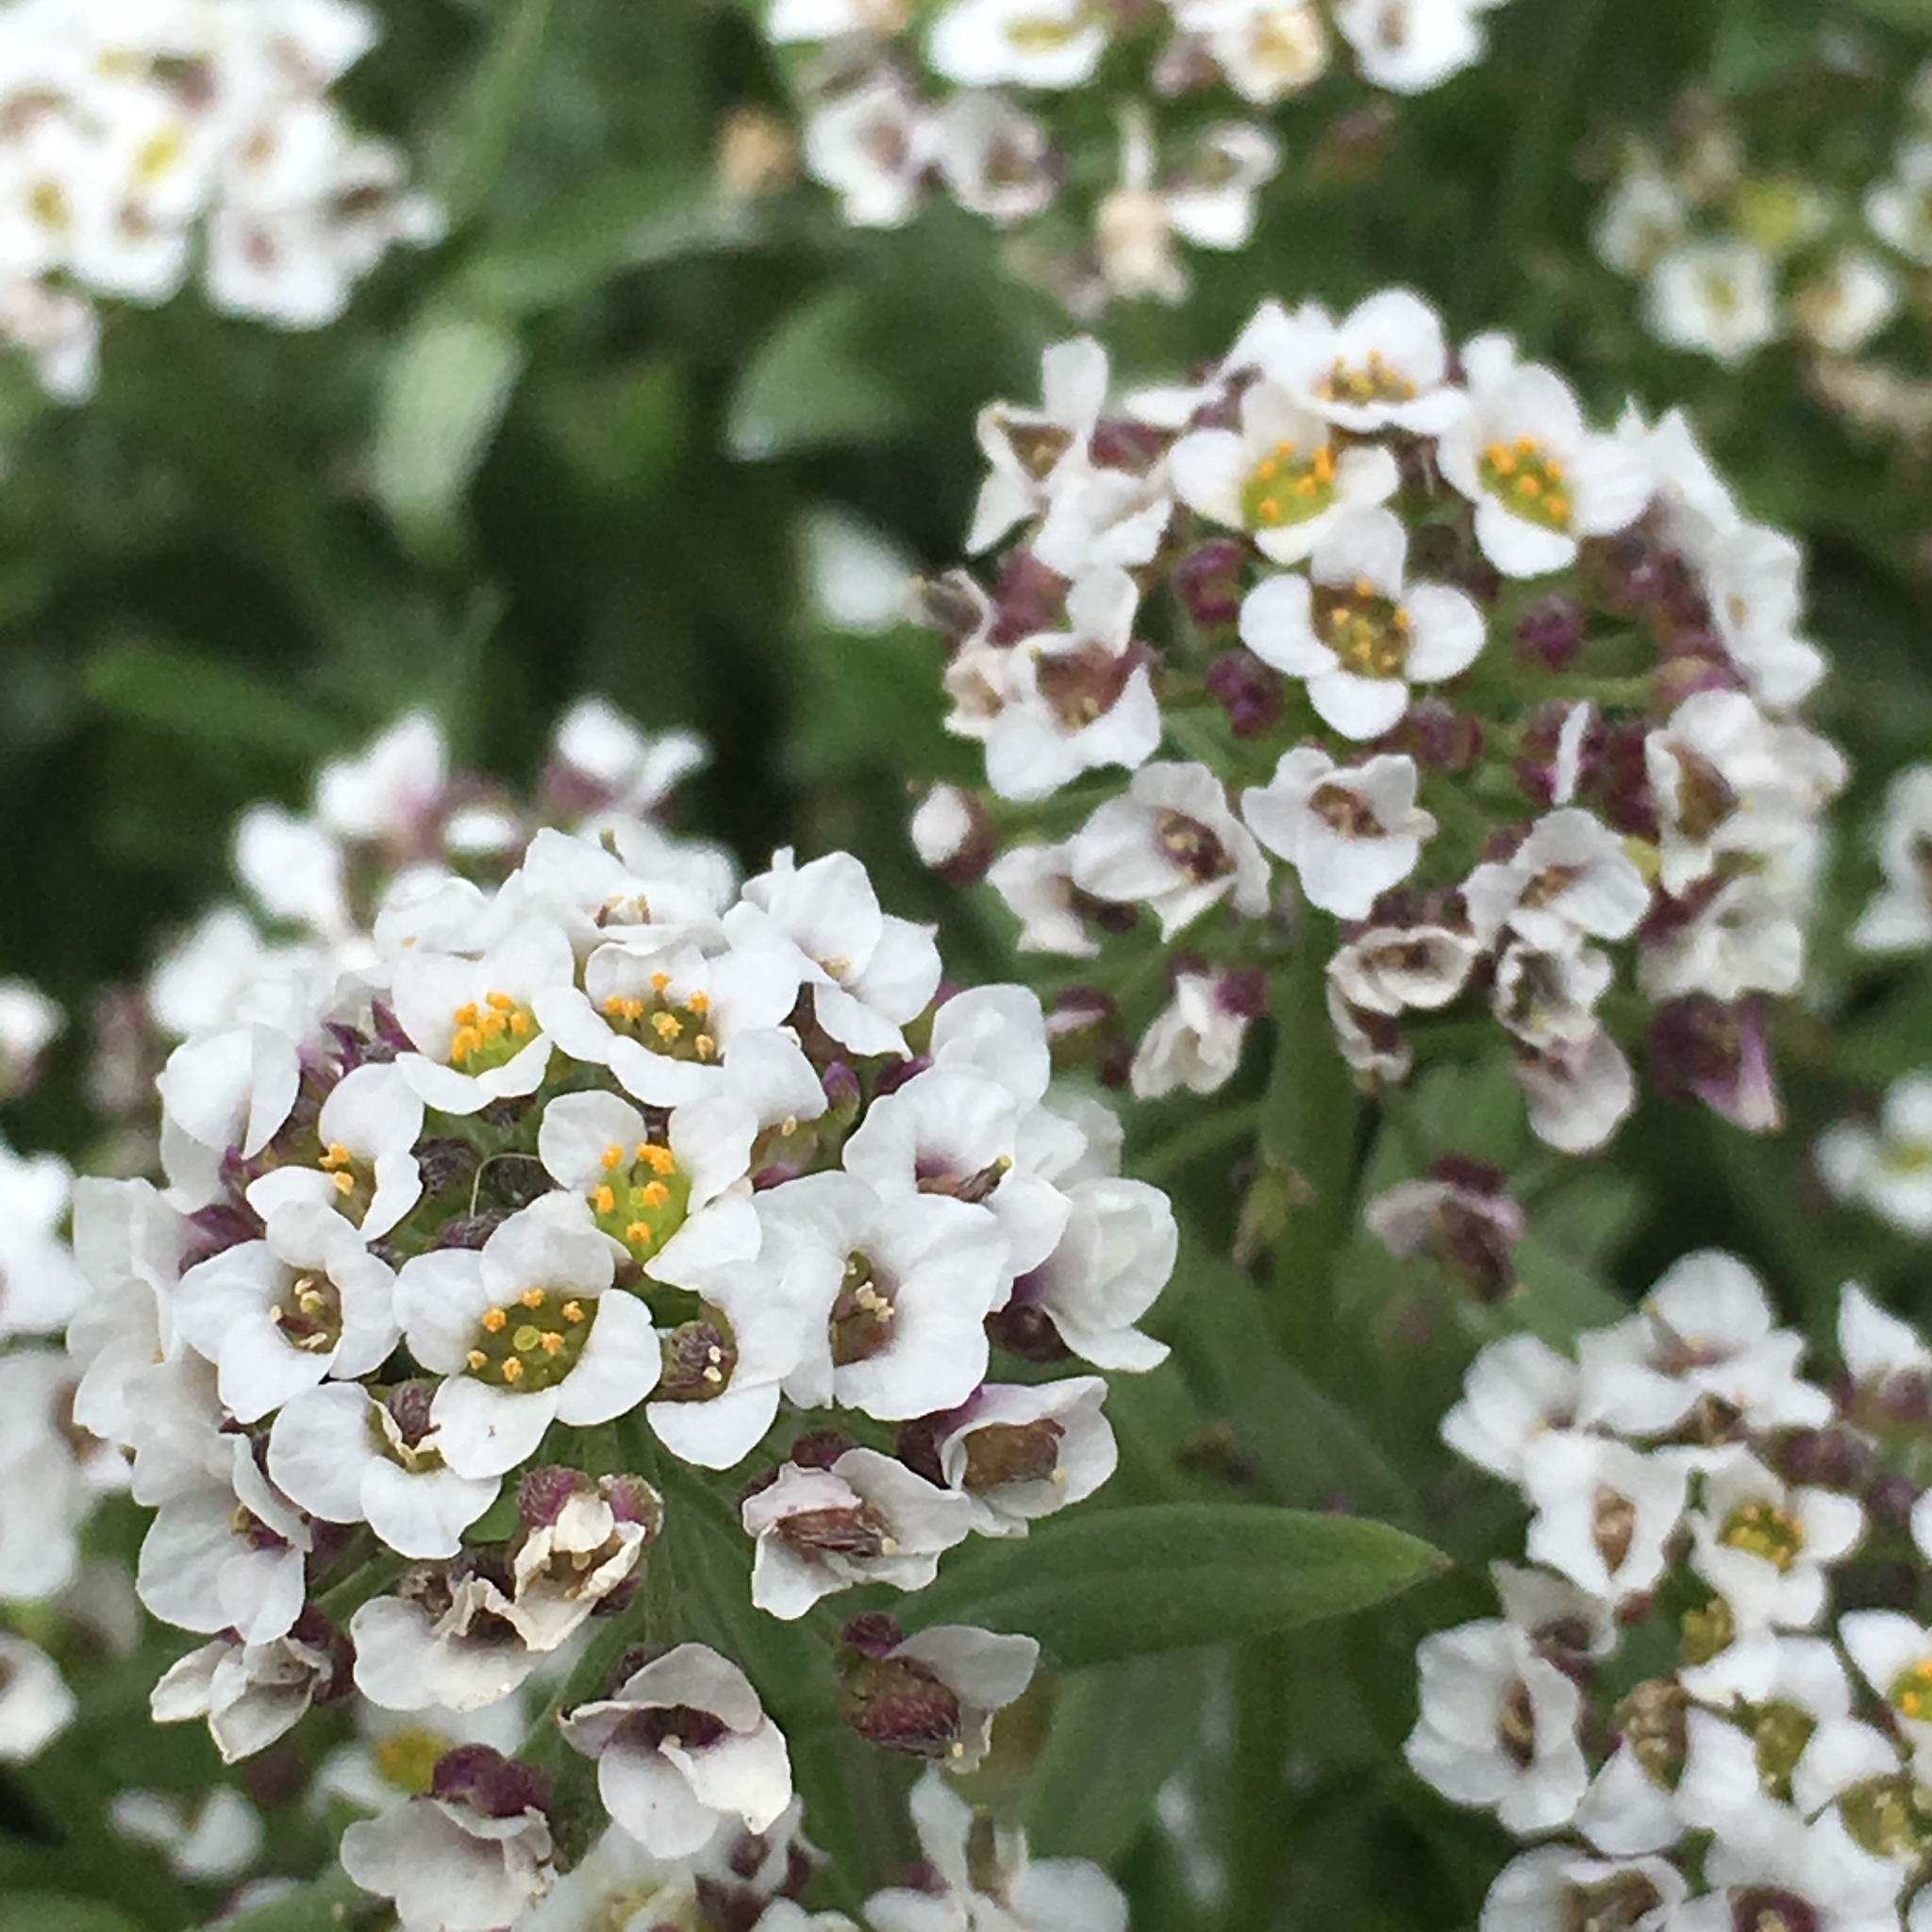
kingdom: Plantae
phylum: Tracheophyta
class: Magnoliopsida
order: Brassicales
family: Brassicaceae
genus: Lobularia
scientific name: Lobularia maritima
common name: Sweet alison
